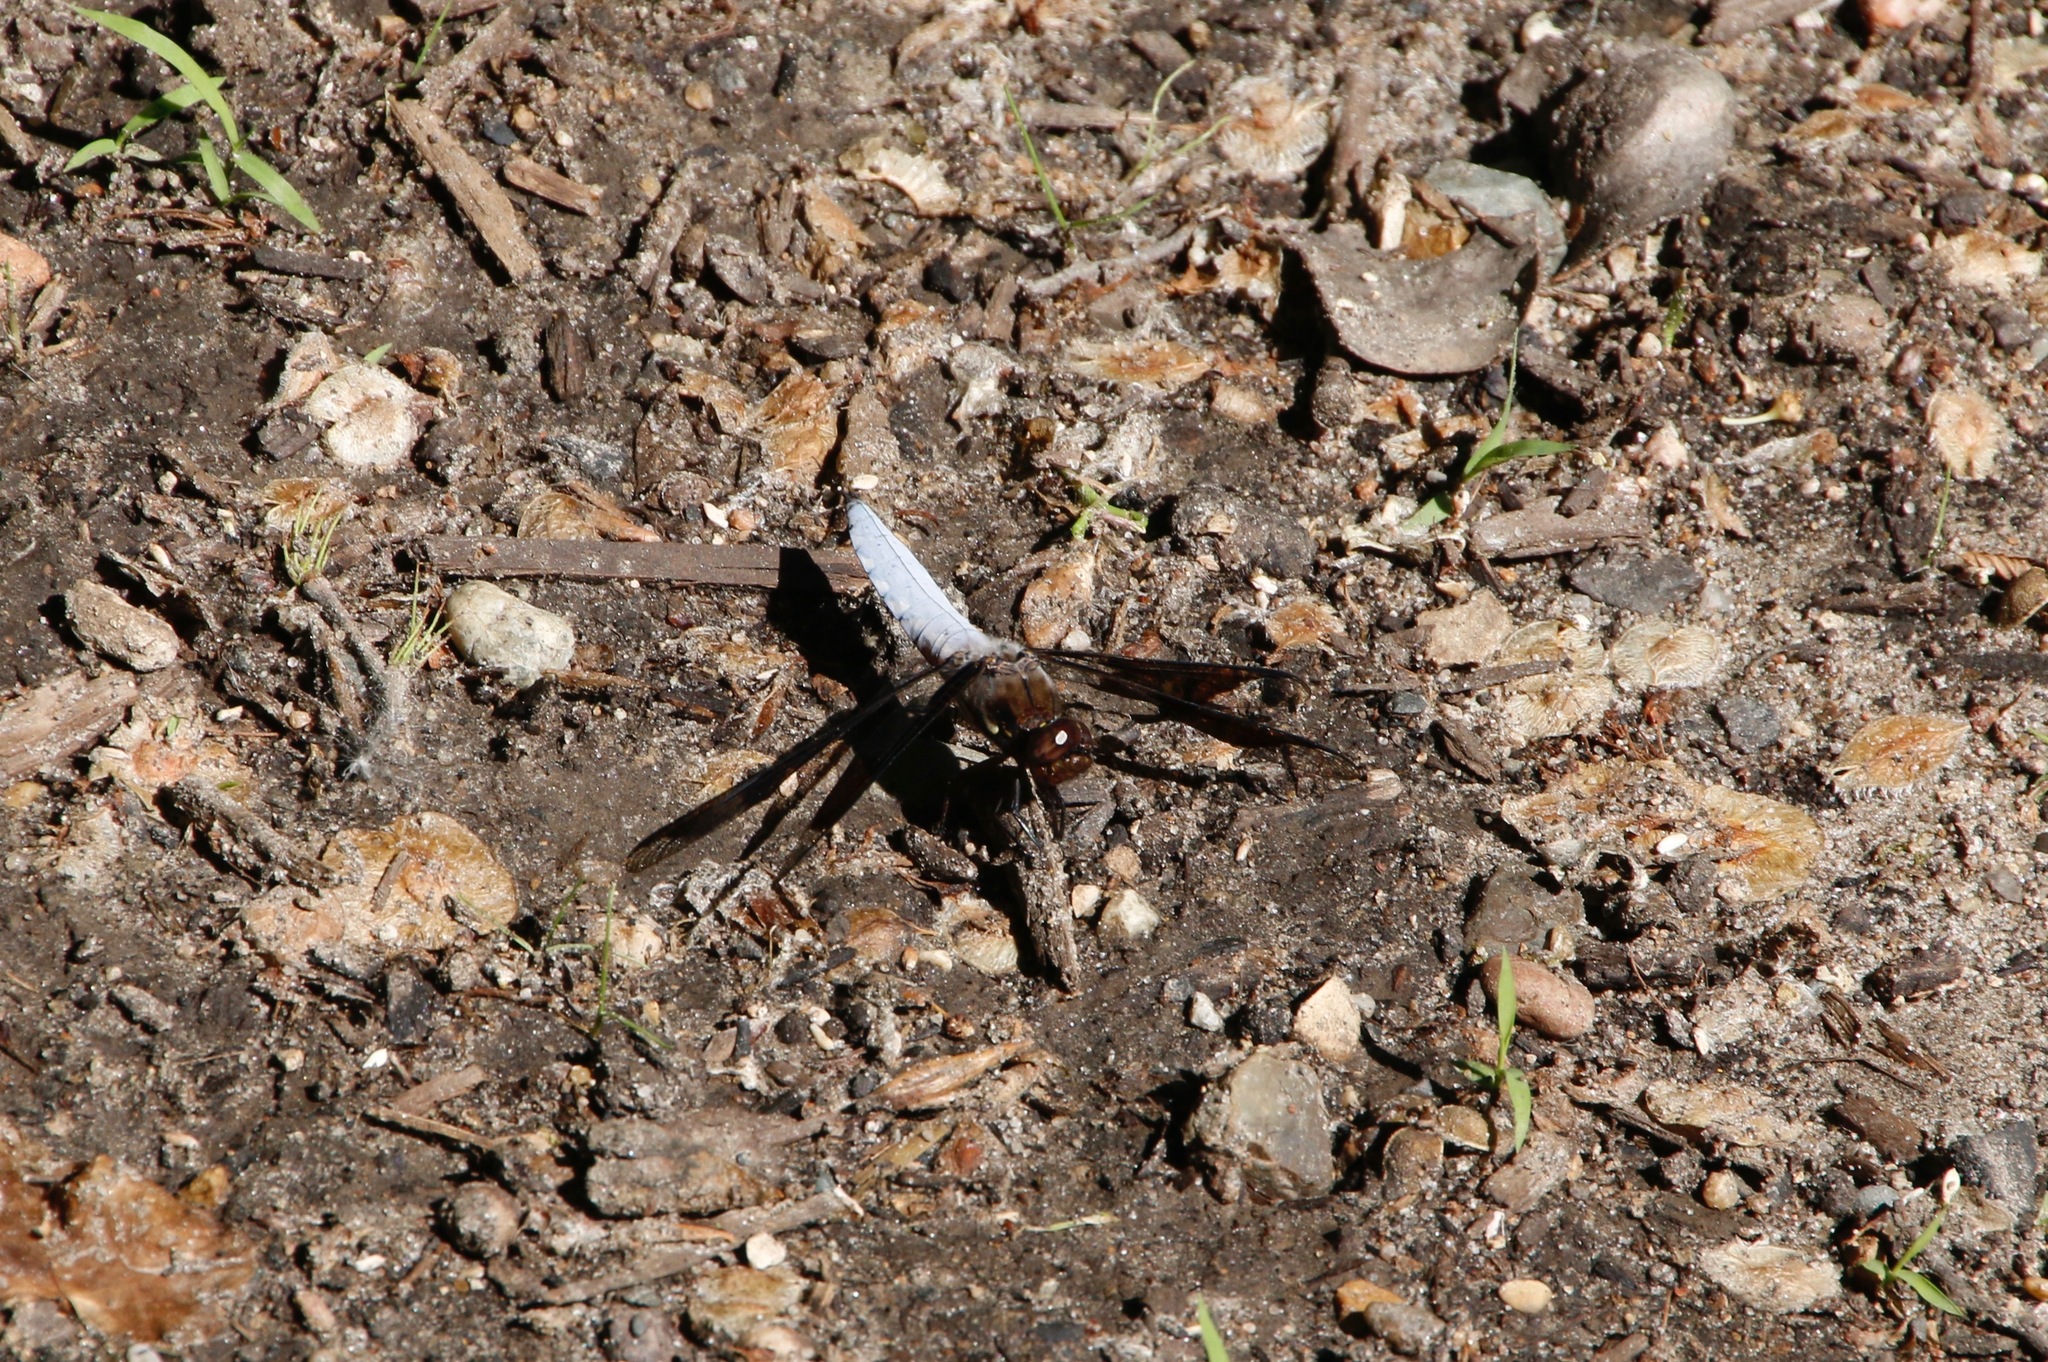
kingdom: Animalia
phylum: Arthropoda
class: Insecta
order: Odonata
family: Libellulidae
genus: Plathemis
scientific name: Plathemis lydia
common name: Common whitetail
